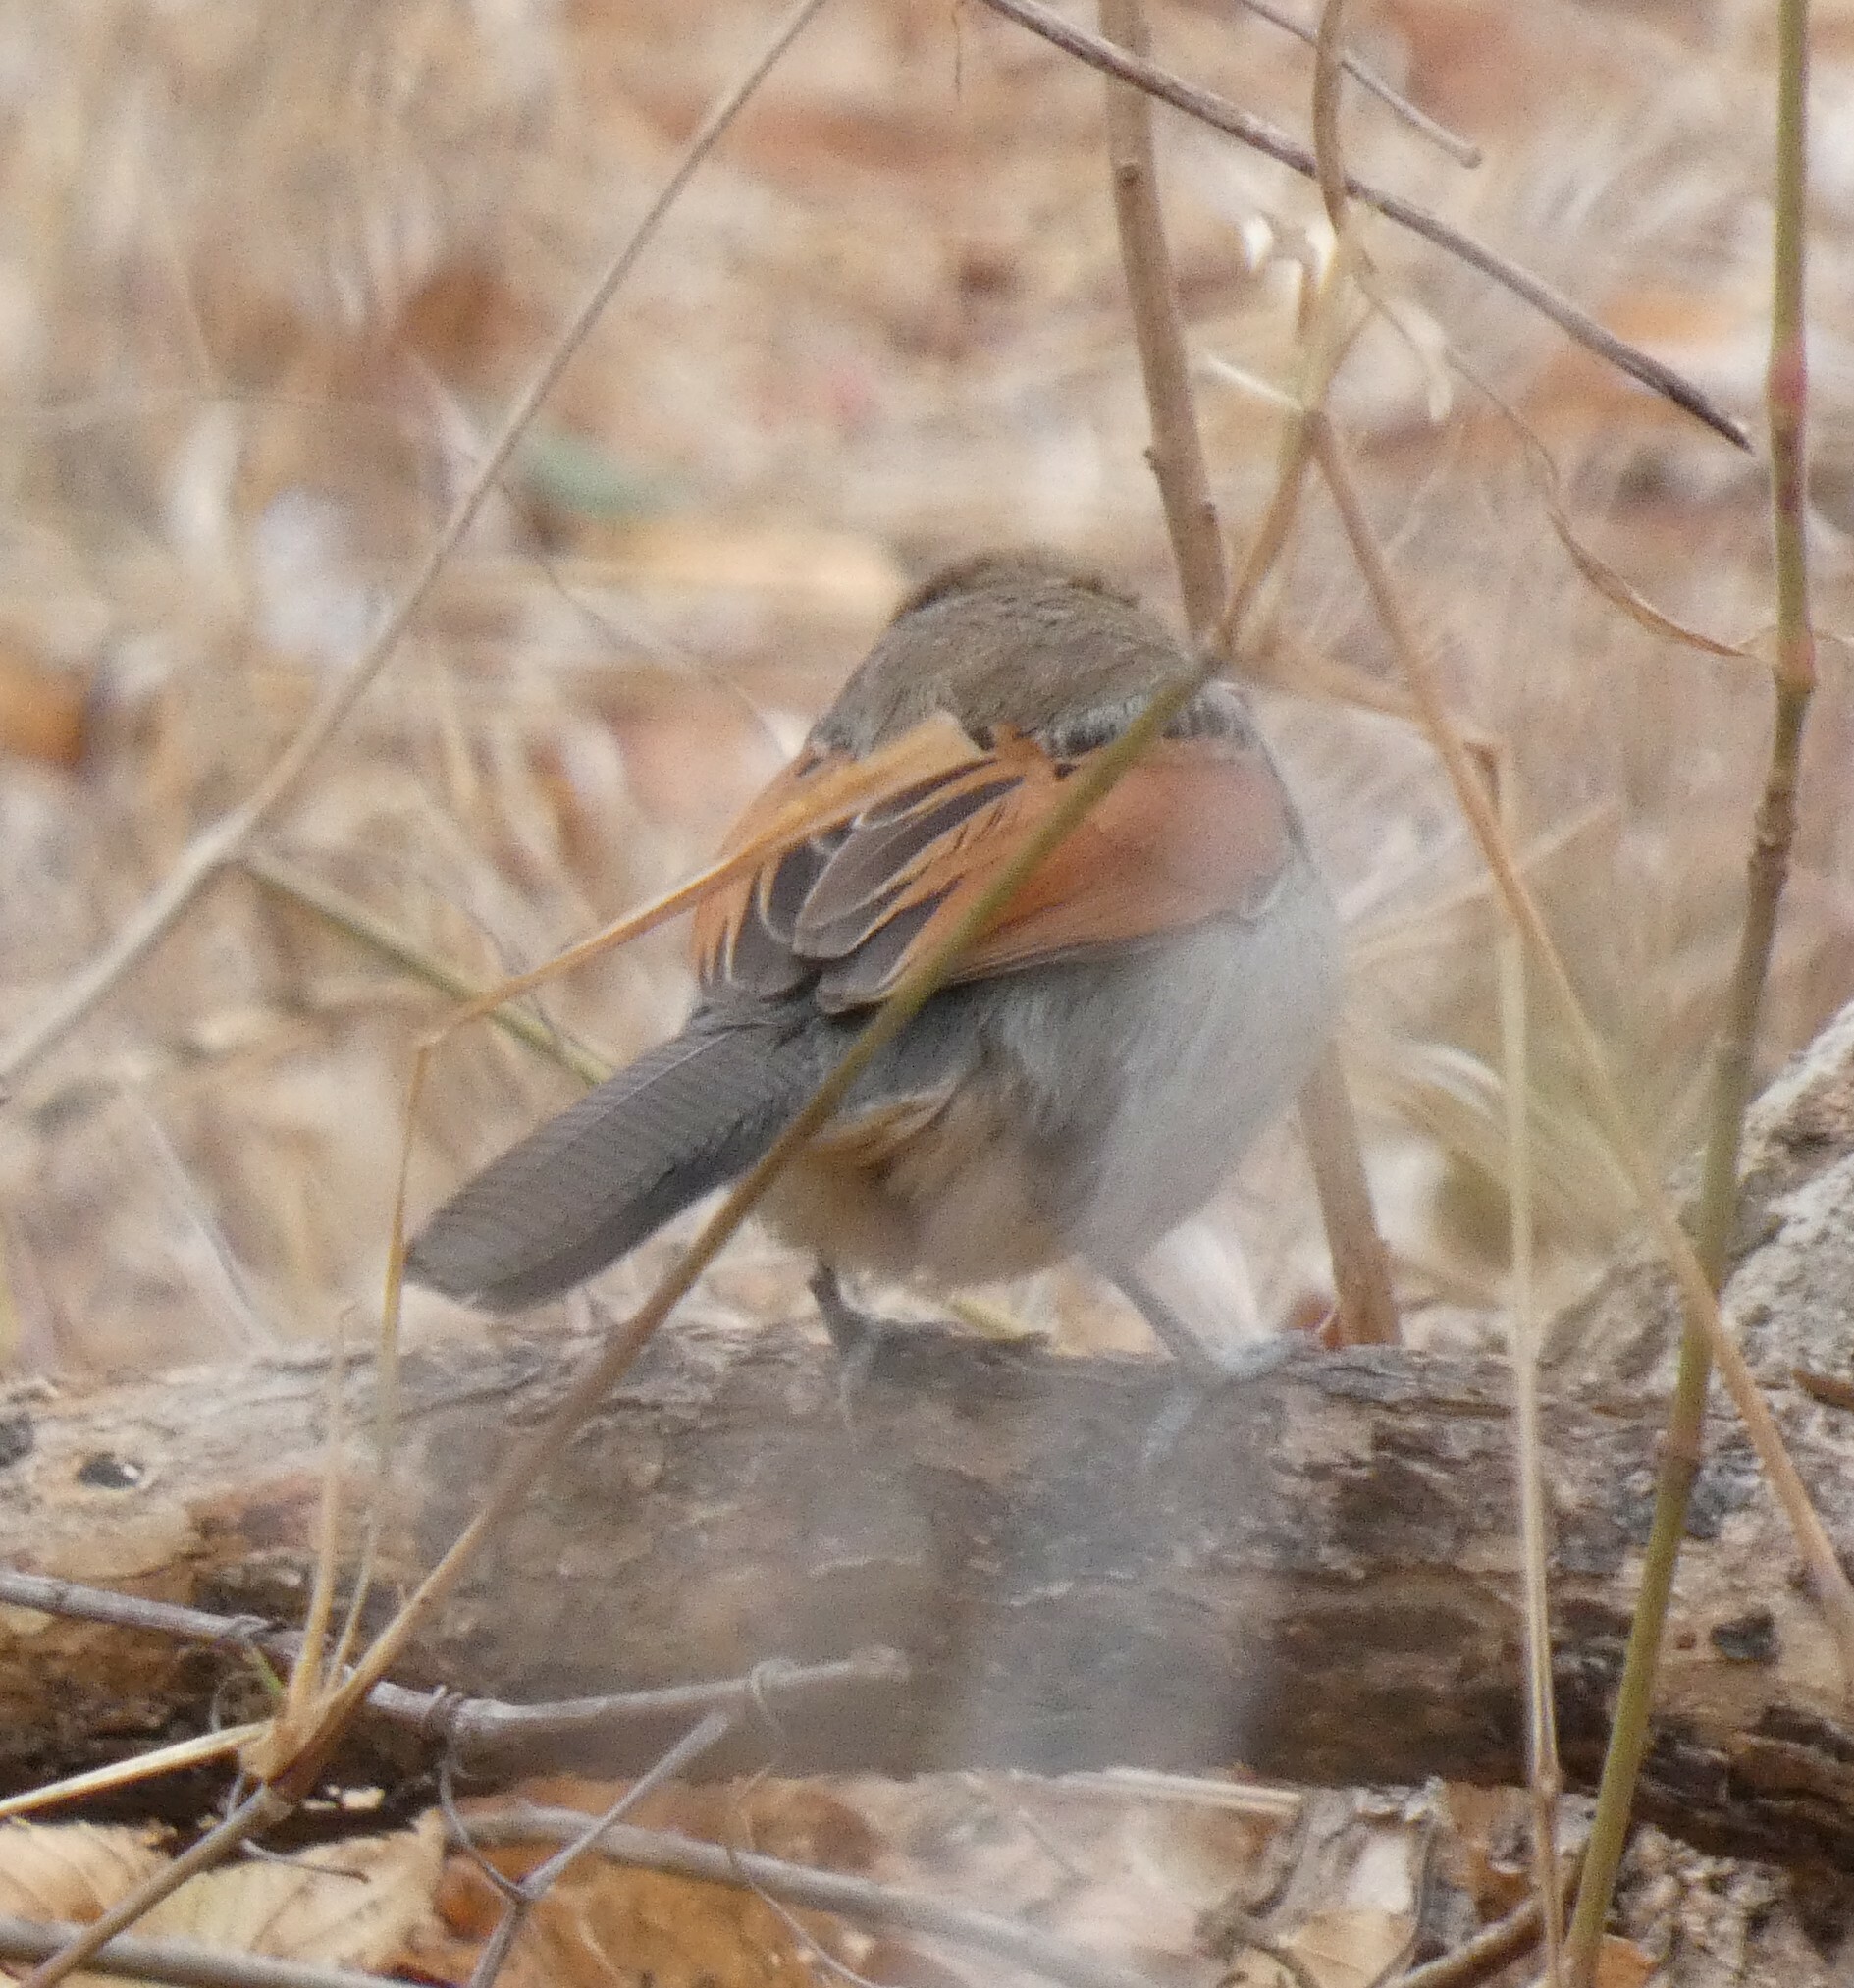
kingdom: Animalia
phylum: Chordata
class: Aves
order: Passeriformes
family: Malaconotidae
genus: Tchagra
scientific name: Tchagra australis
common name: Brown-crowned tchagra
